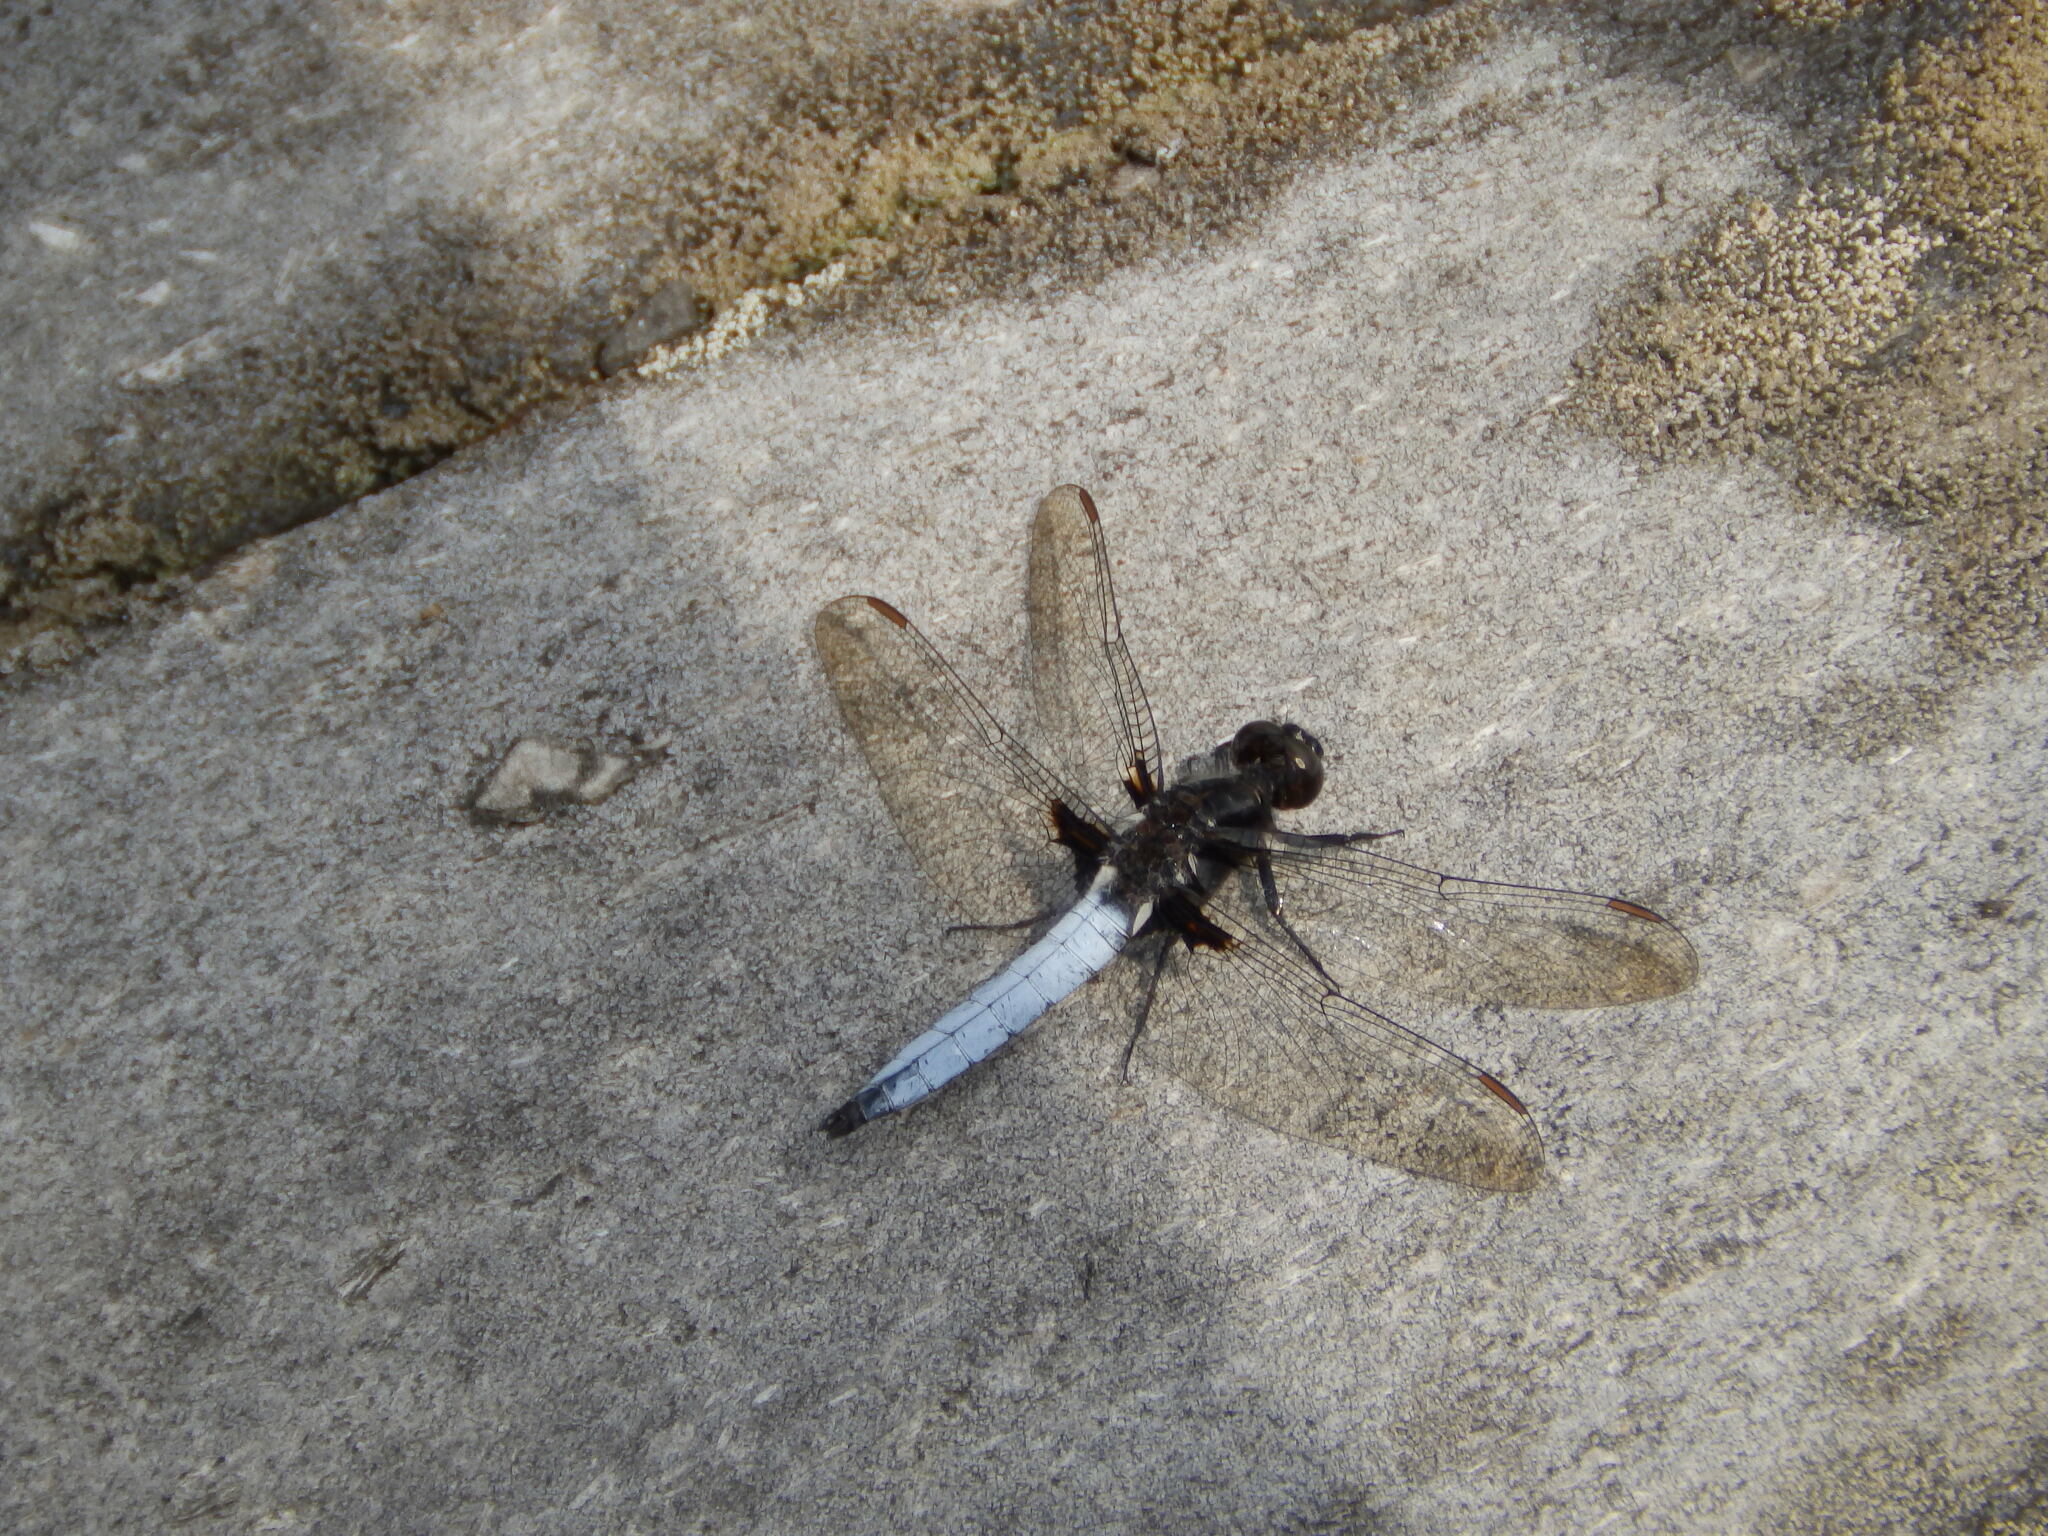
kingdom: Animalia
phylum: Arthropoda
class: Insecta
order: Odonata
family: Libellulidae
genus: Ladona
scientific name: Ladona exusta
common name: Libellule embrasée
